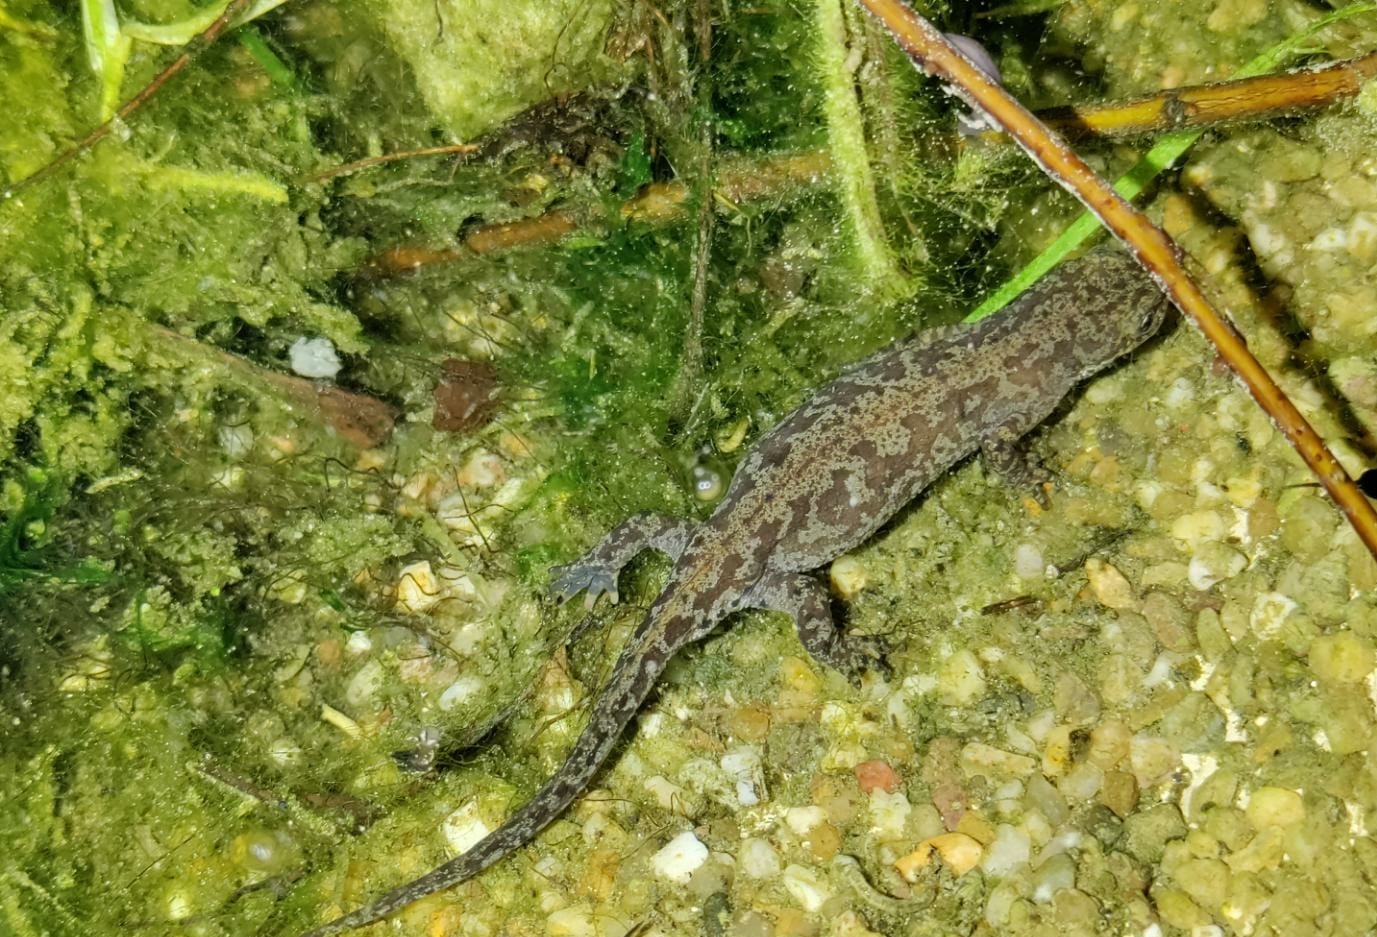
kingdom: Animalia
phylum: Chordata
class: Amphibia
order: Caudata
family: Salamandridae
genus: Ichthyosaura
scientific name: Ichthyosaura alpestris
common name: Alpine newt
